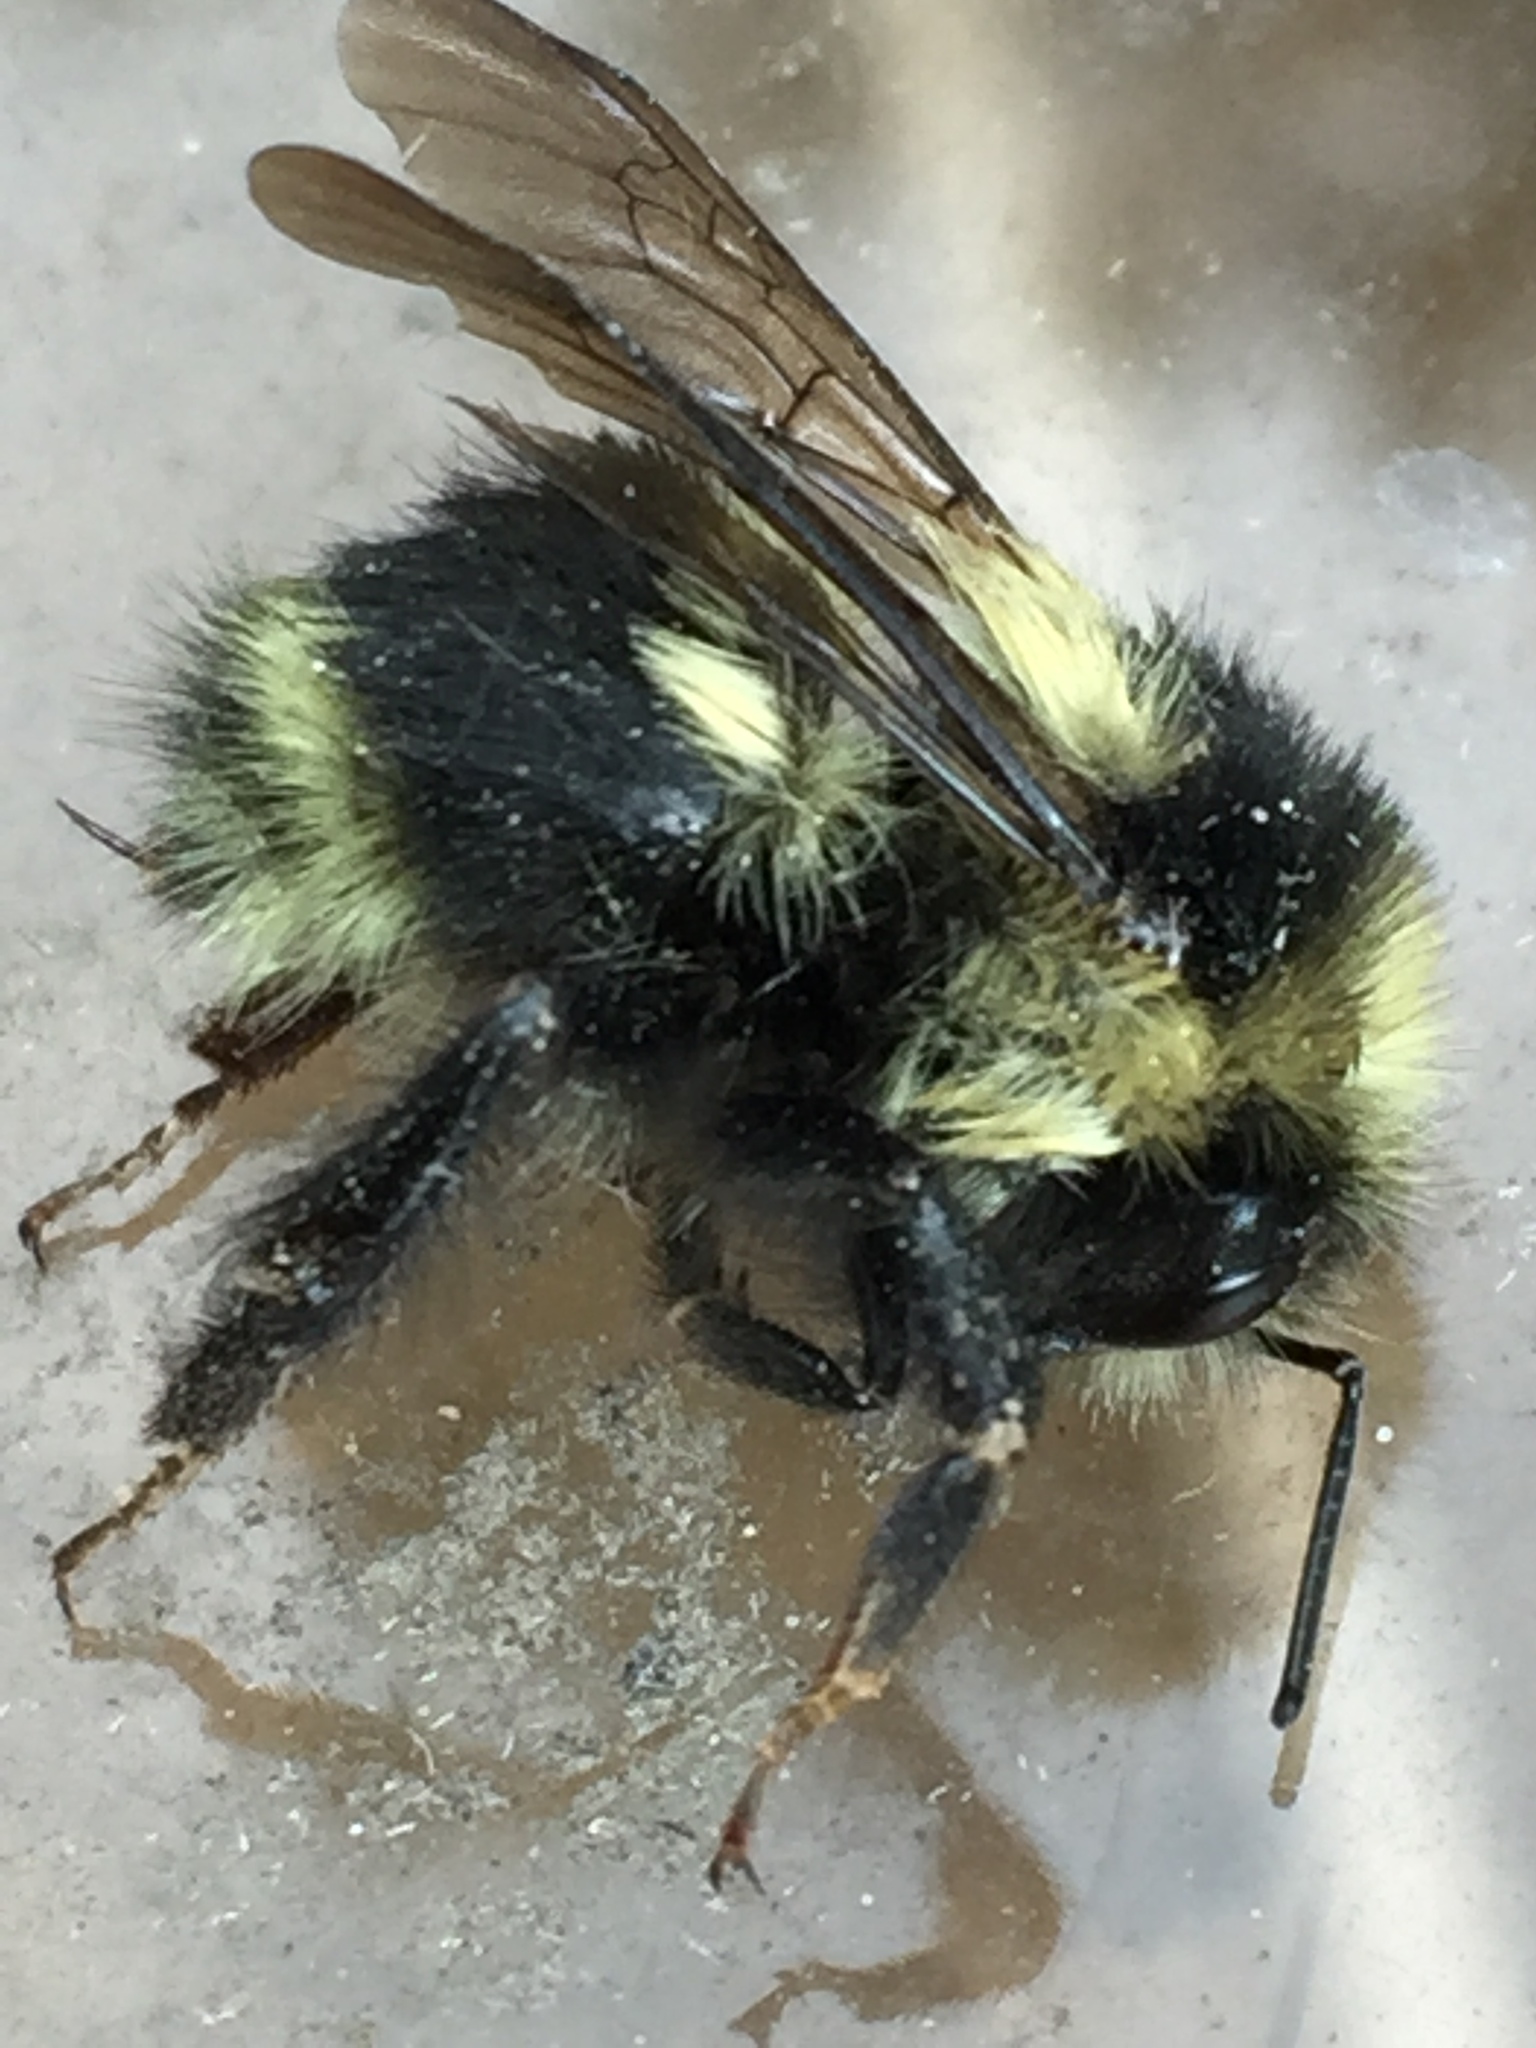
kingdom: Animalia
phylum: Arthropoda
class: Insecta
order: Hymenoptera
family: Apidae
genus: Bombus
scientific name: Bombus melanopygus
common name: Black tail bumble bee
